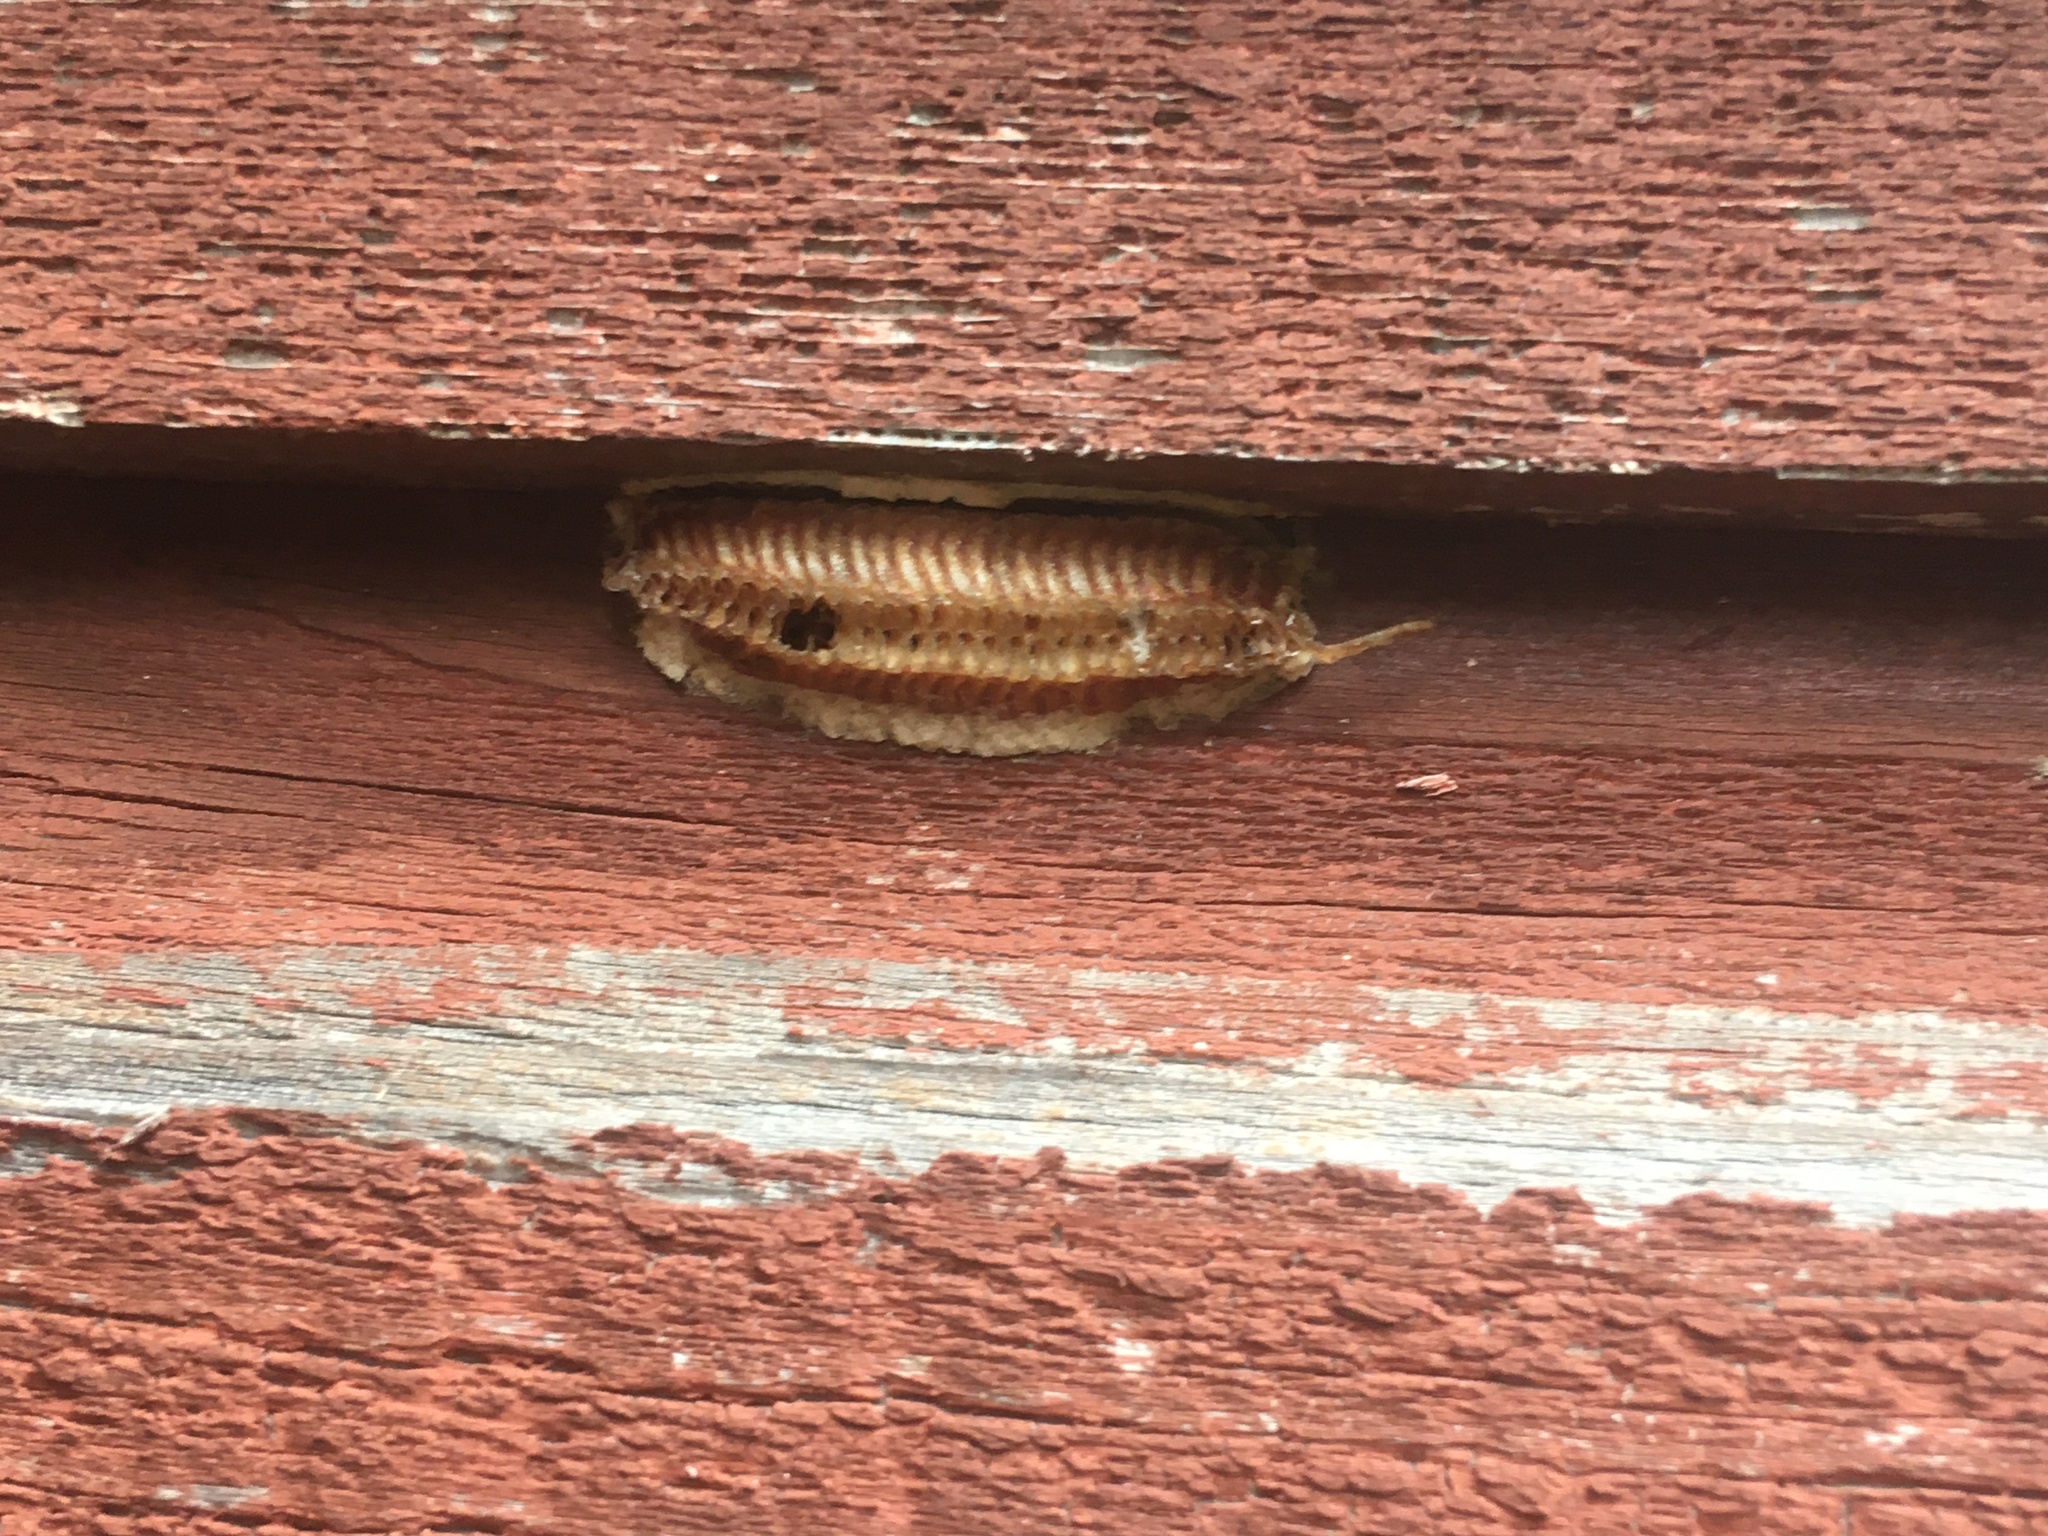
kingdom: Animalia
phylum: Arthropoda
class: Insecta
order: Mantodea
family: Miomantidae
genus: Miomantis
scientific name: Miomantis caffra
